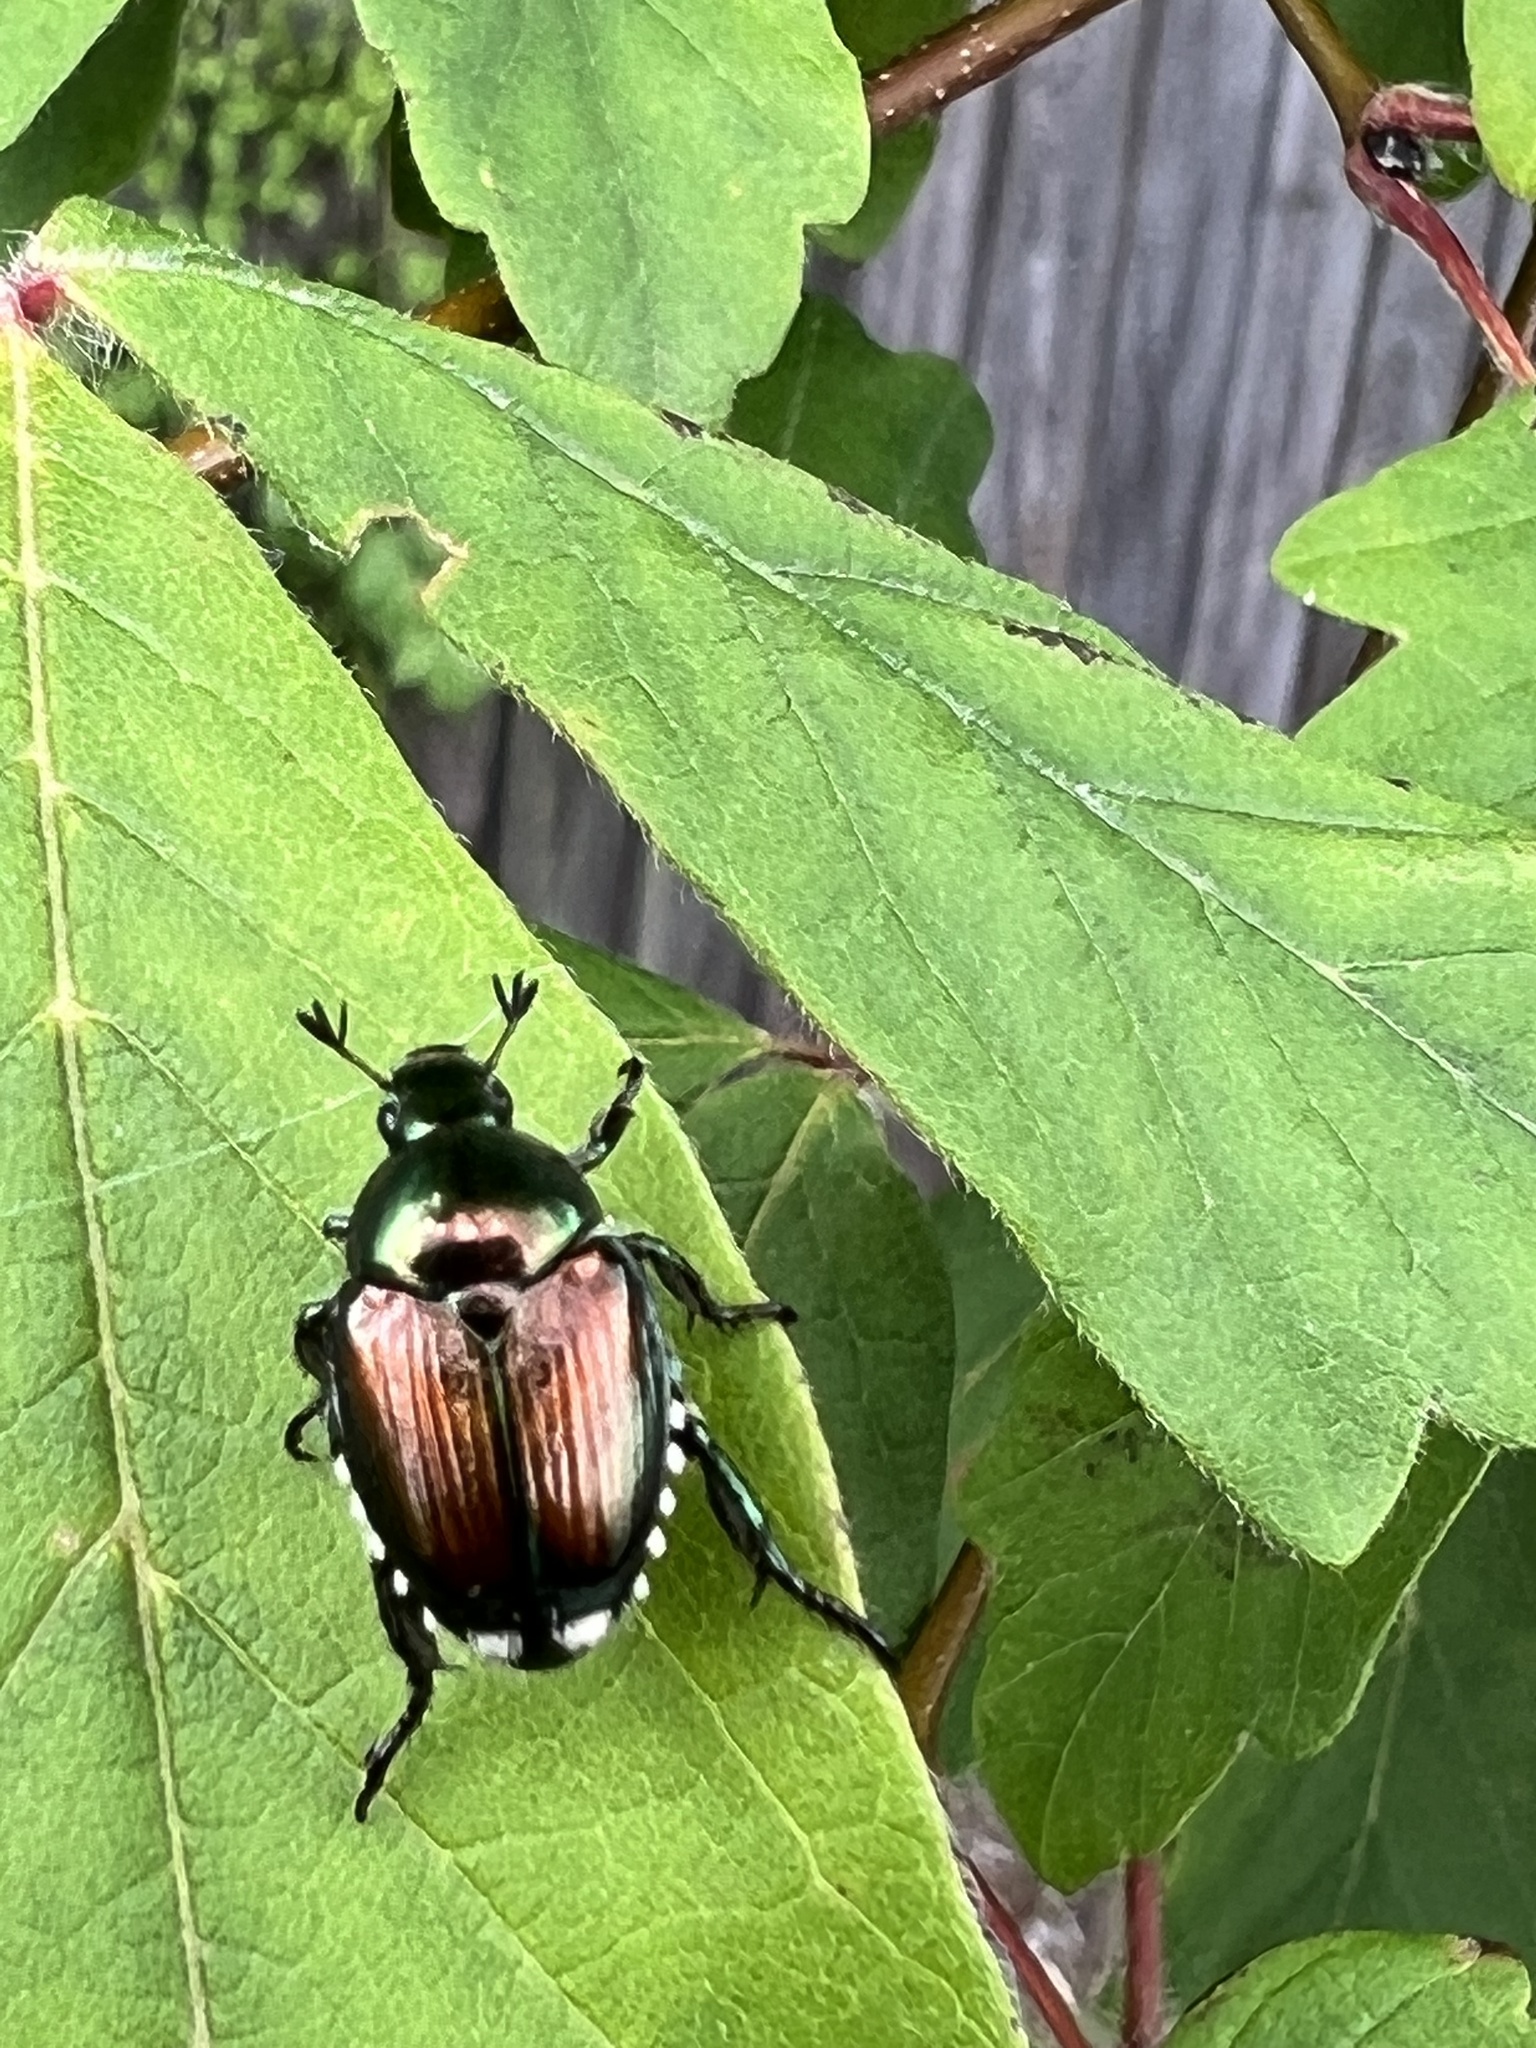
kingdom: Animalia
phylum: Arthropoda
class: Insecta
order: Coleoptera
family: Scarabaeidae
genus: Popillia
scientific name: Popillia japonica
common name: Japanese beetle
